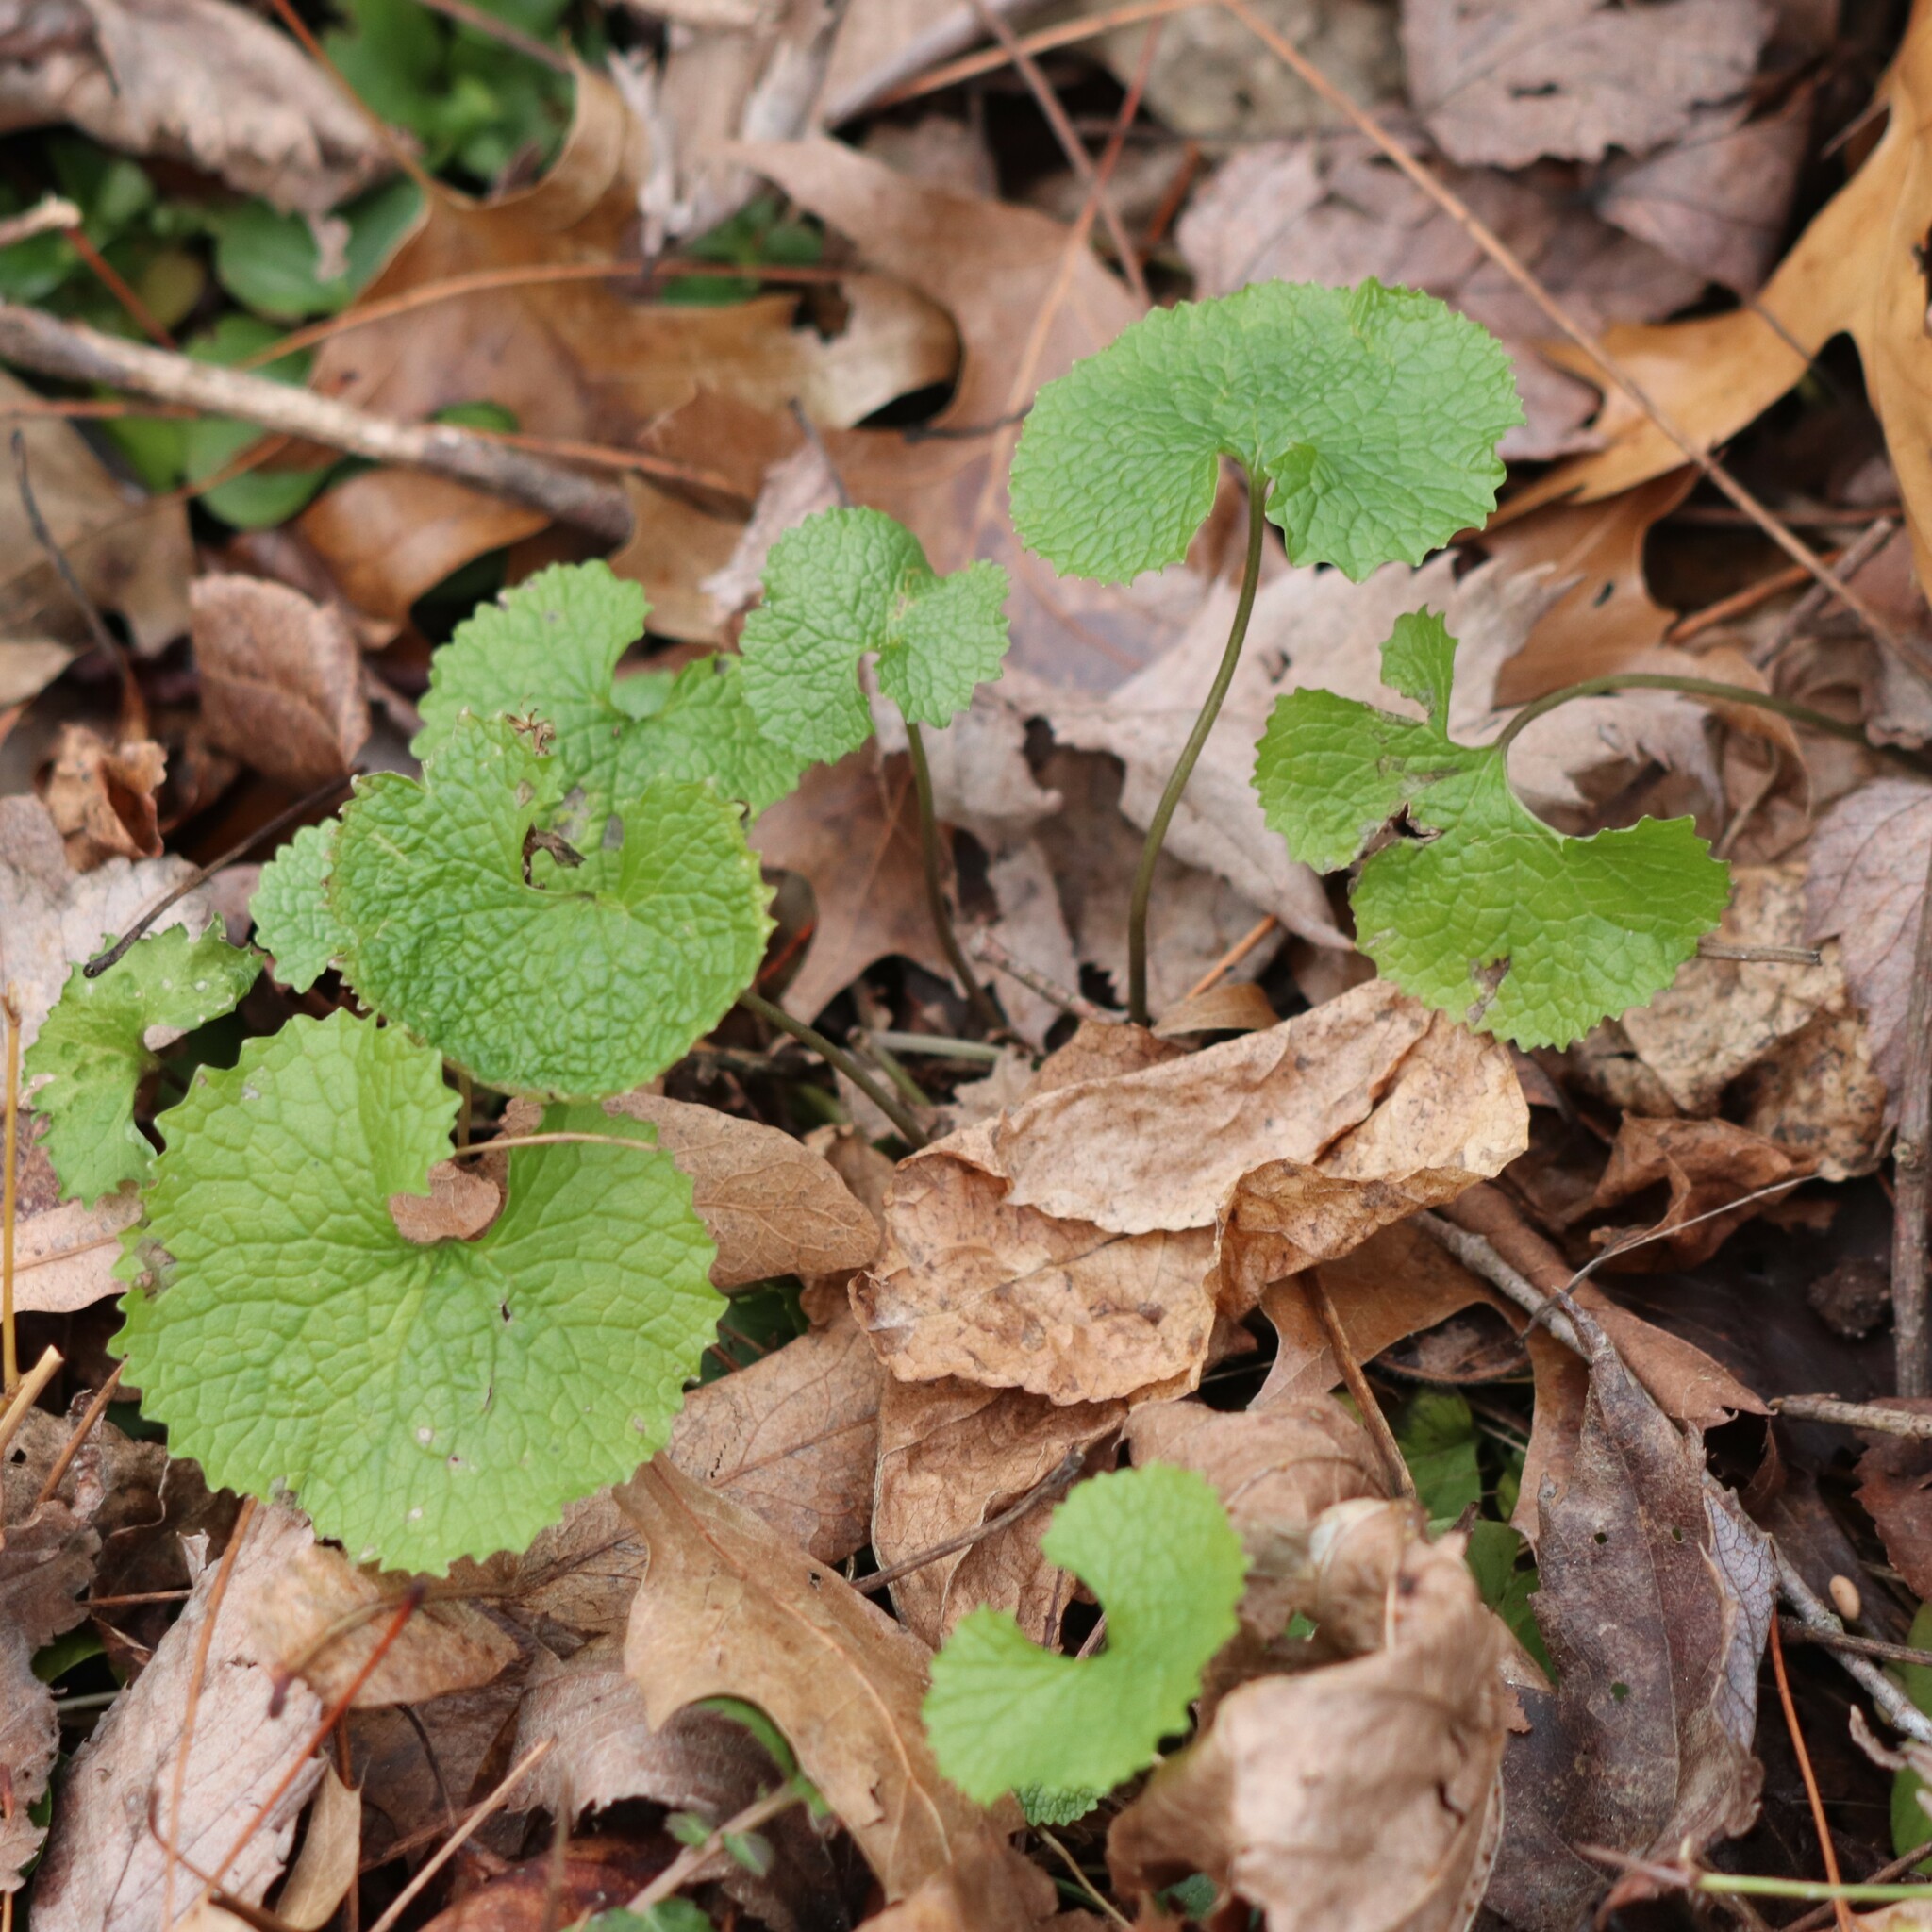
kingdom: Plantae
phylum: Tracheophyta
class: Magnoliopsida
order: Brassicales
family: Brassicaceae
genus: Alliaria
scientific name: Alliaria petiolata
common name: Garlic mustard
